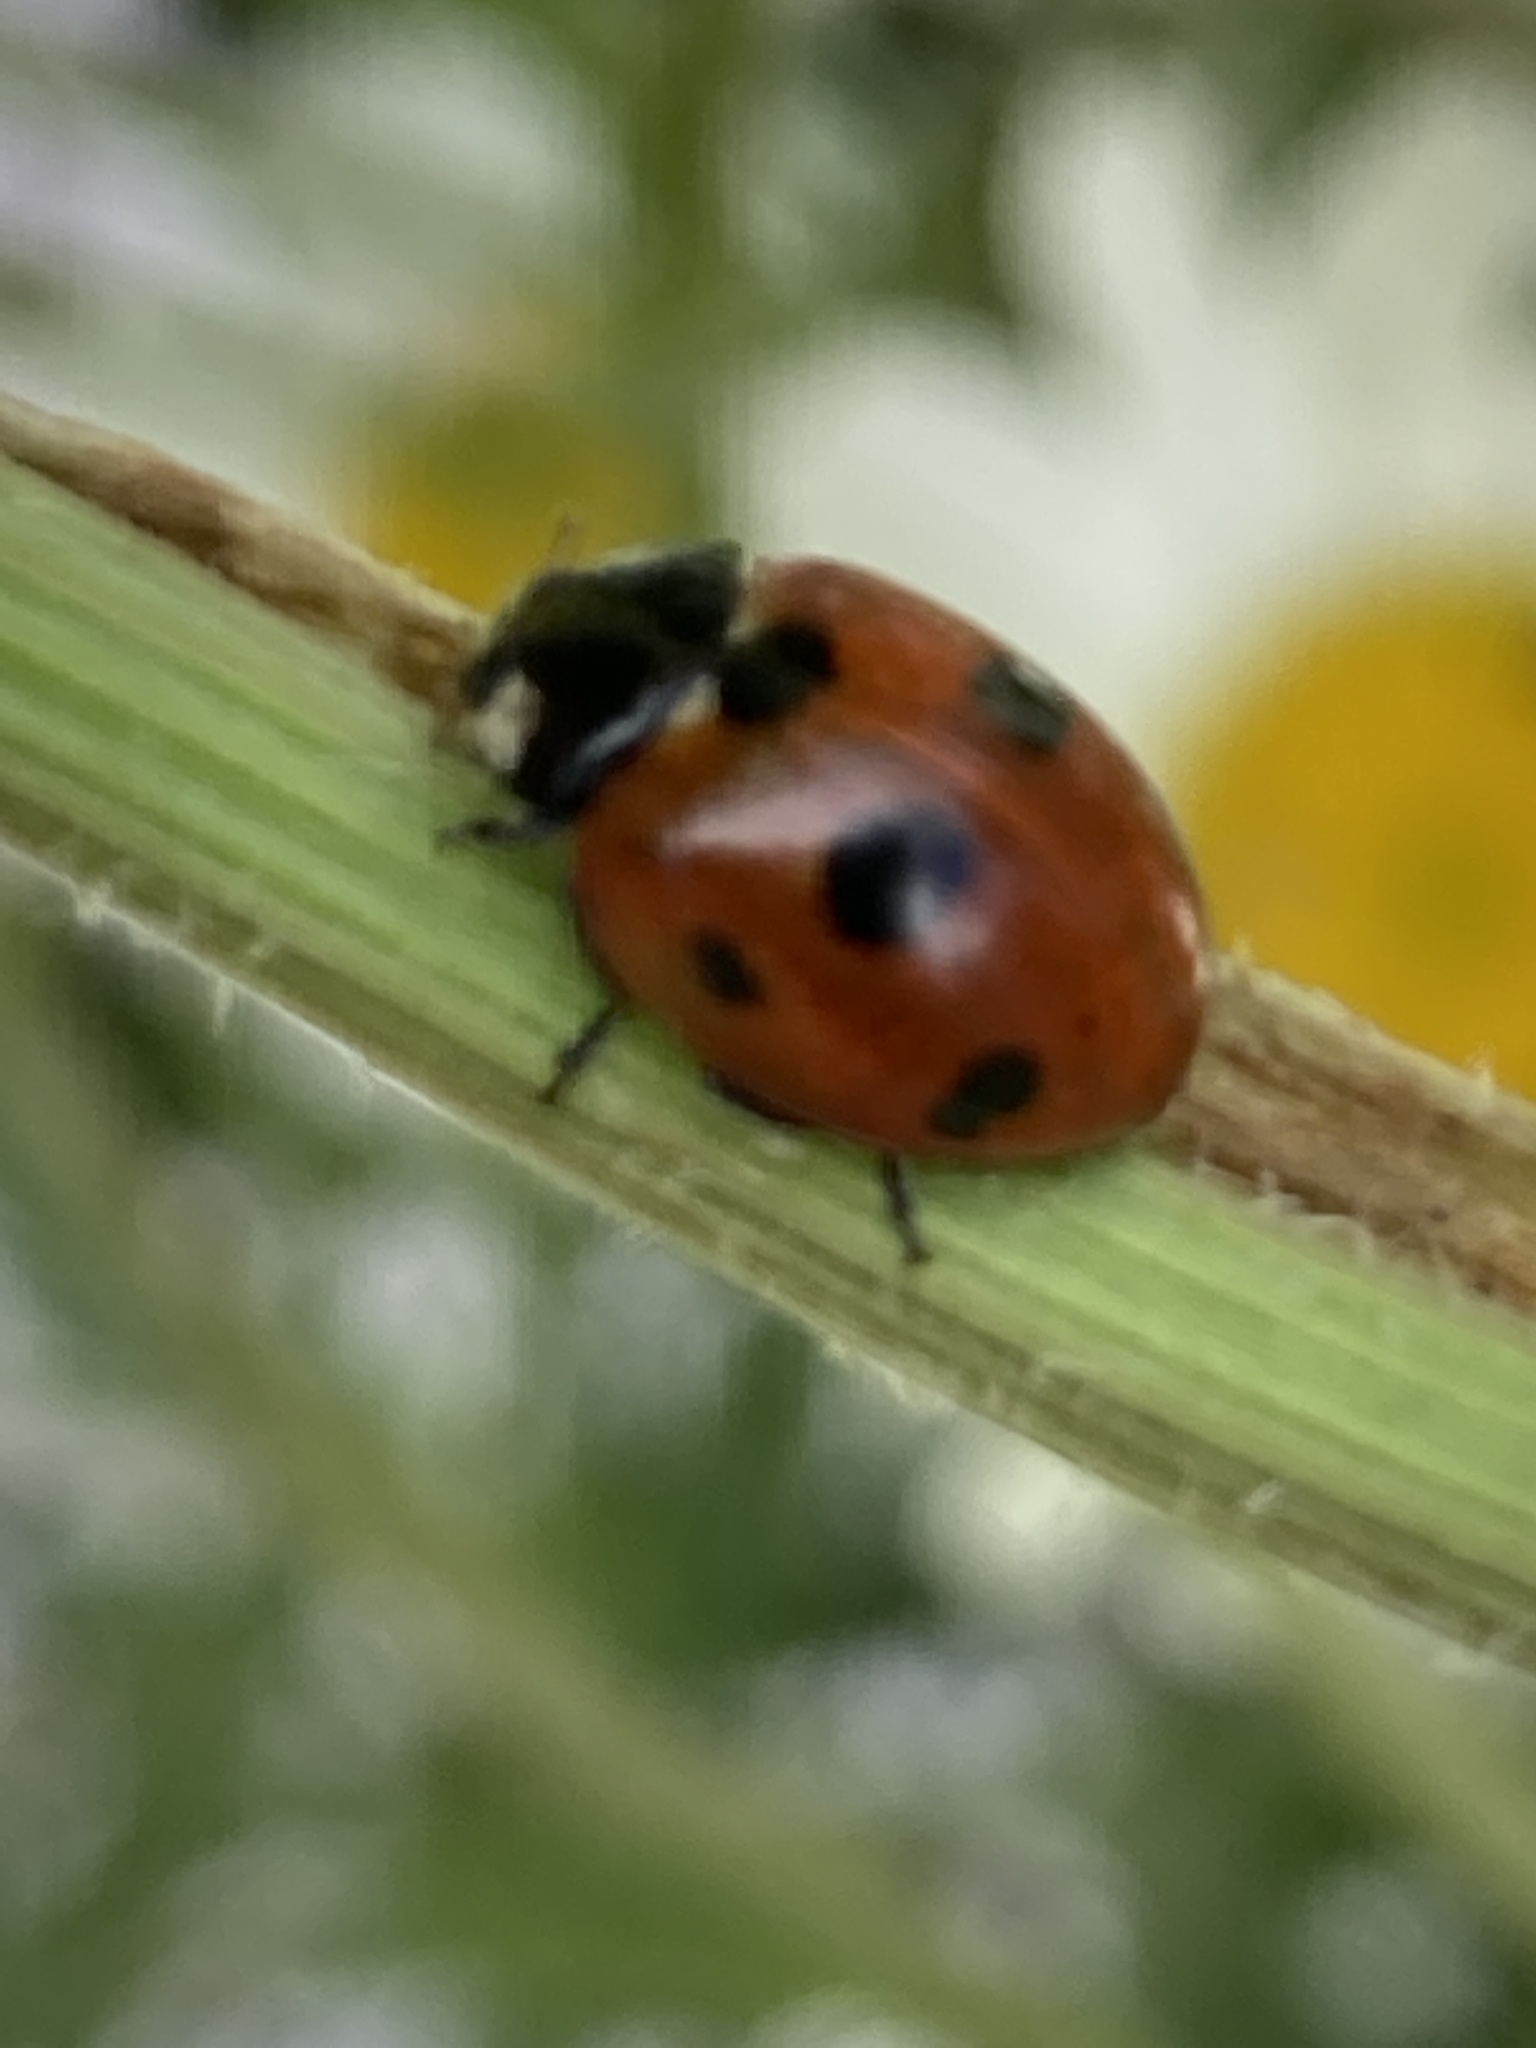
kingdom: Animalia
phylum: Arthropoda
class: Insecta
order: Coleoptera
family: Coccinellidae
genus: Coccinella
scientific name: Coccinella septempunctata
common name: Sevenspotted lady beetle
